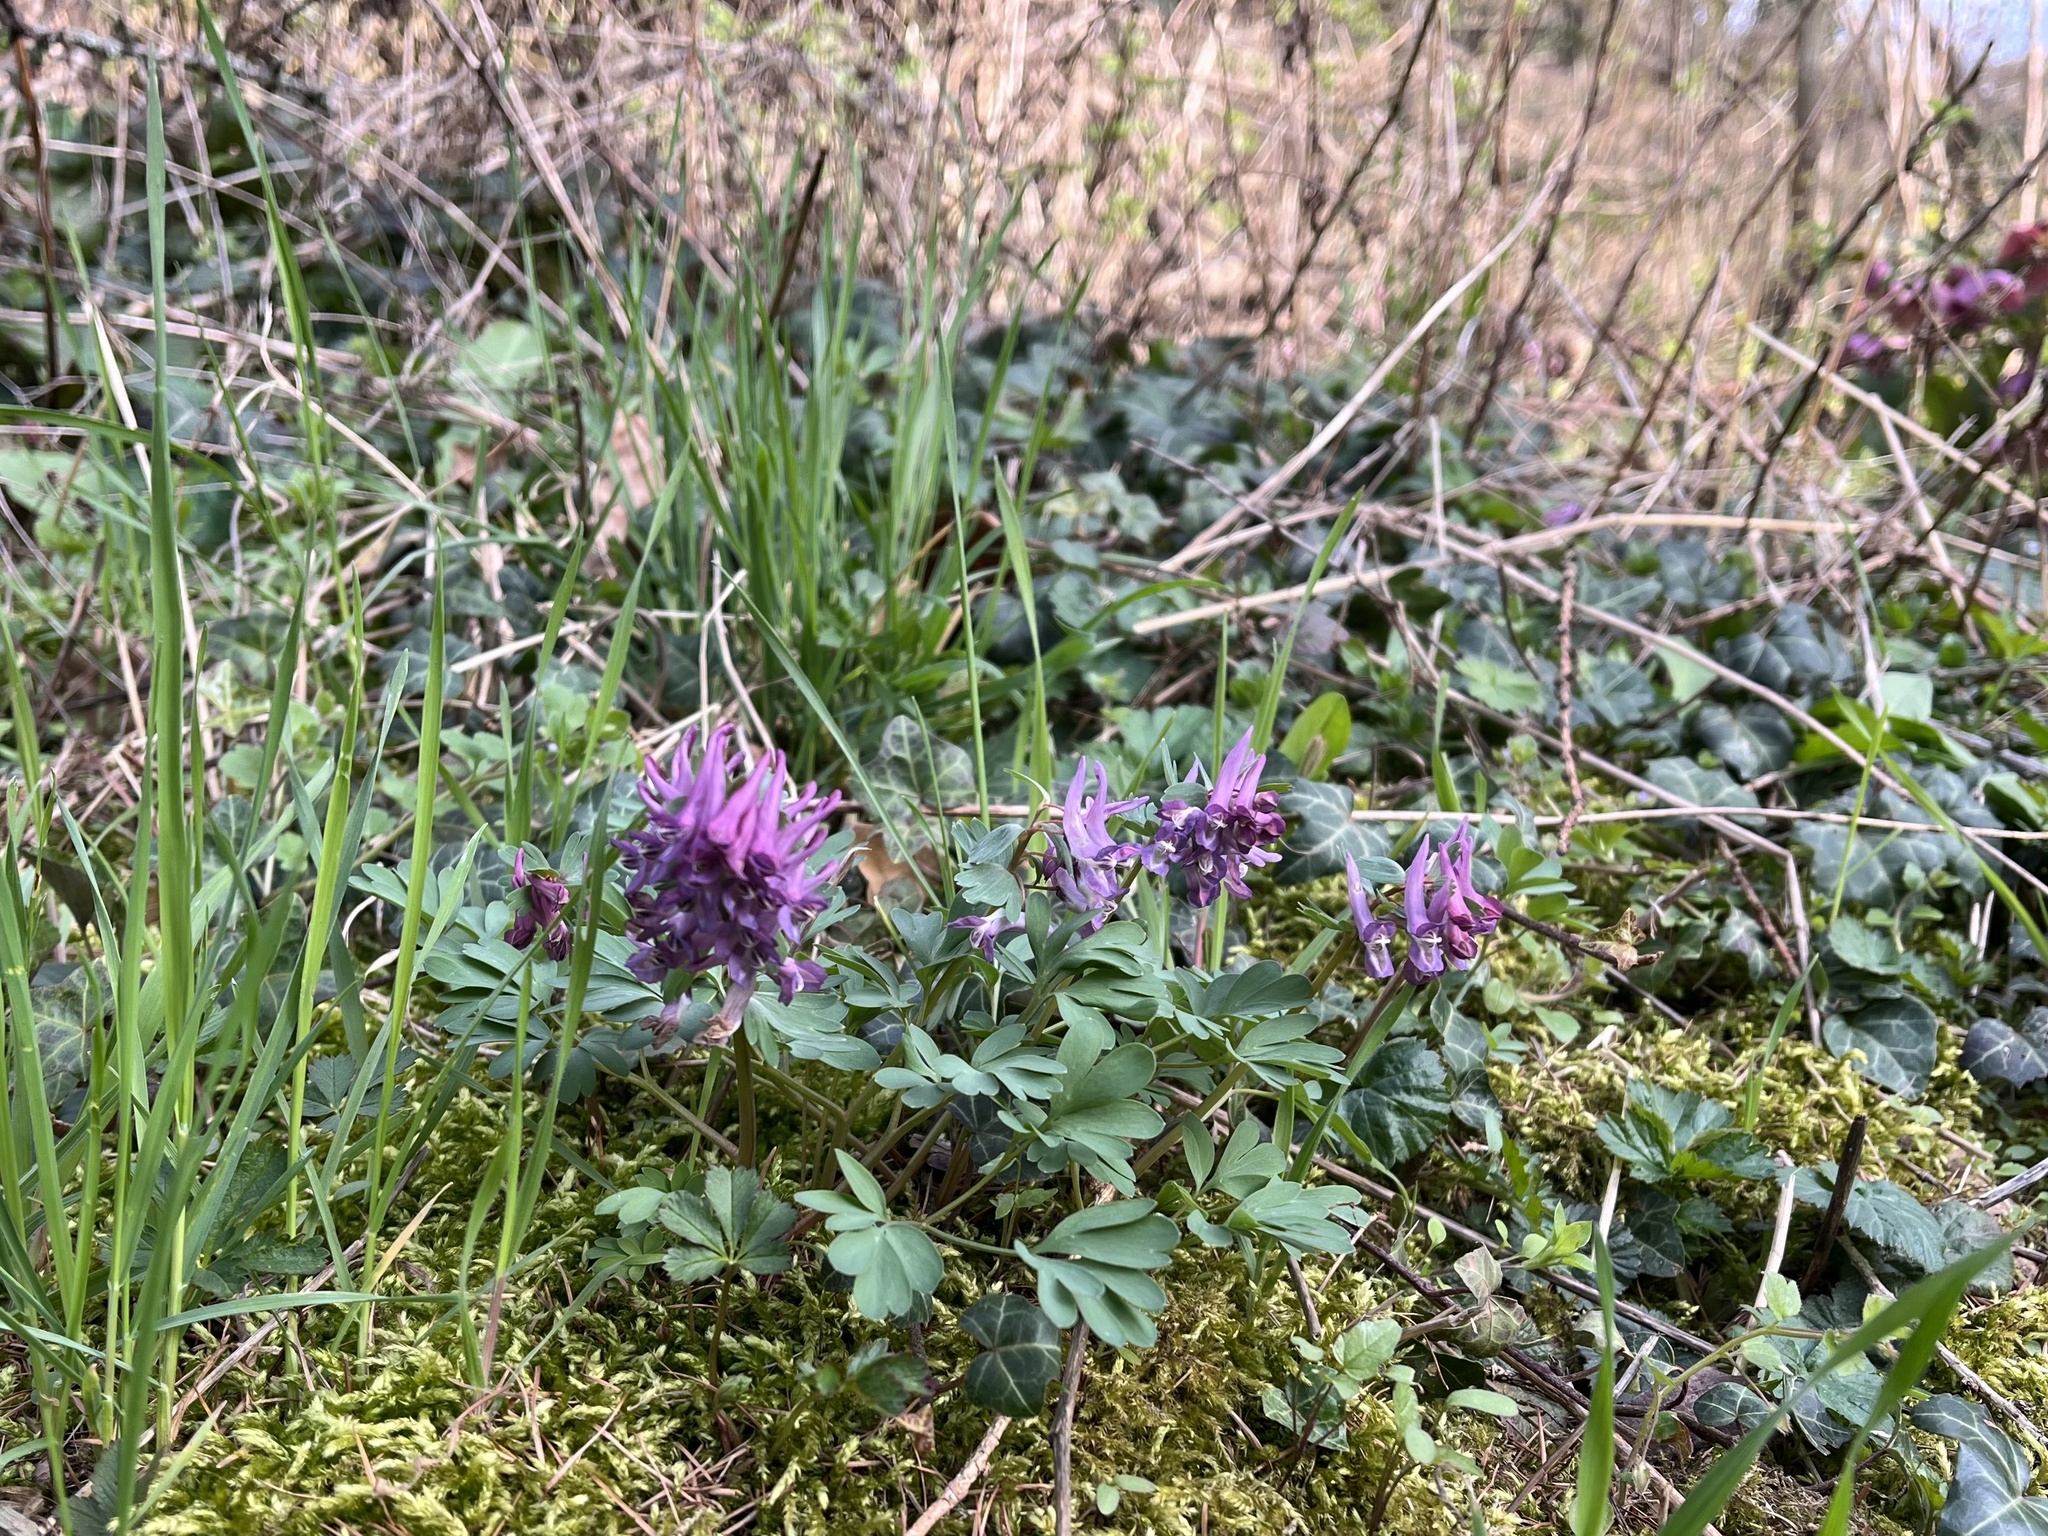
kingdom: Plantae
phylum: Tracheophyta
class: Magnoliopsida
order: Ranunculales
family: Papaveraceae
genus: Corydalis
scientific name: Corydalis solida
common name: Bird-in-a-bush
